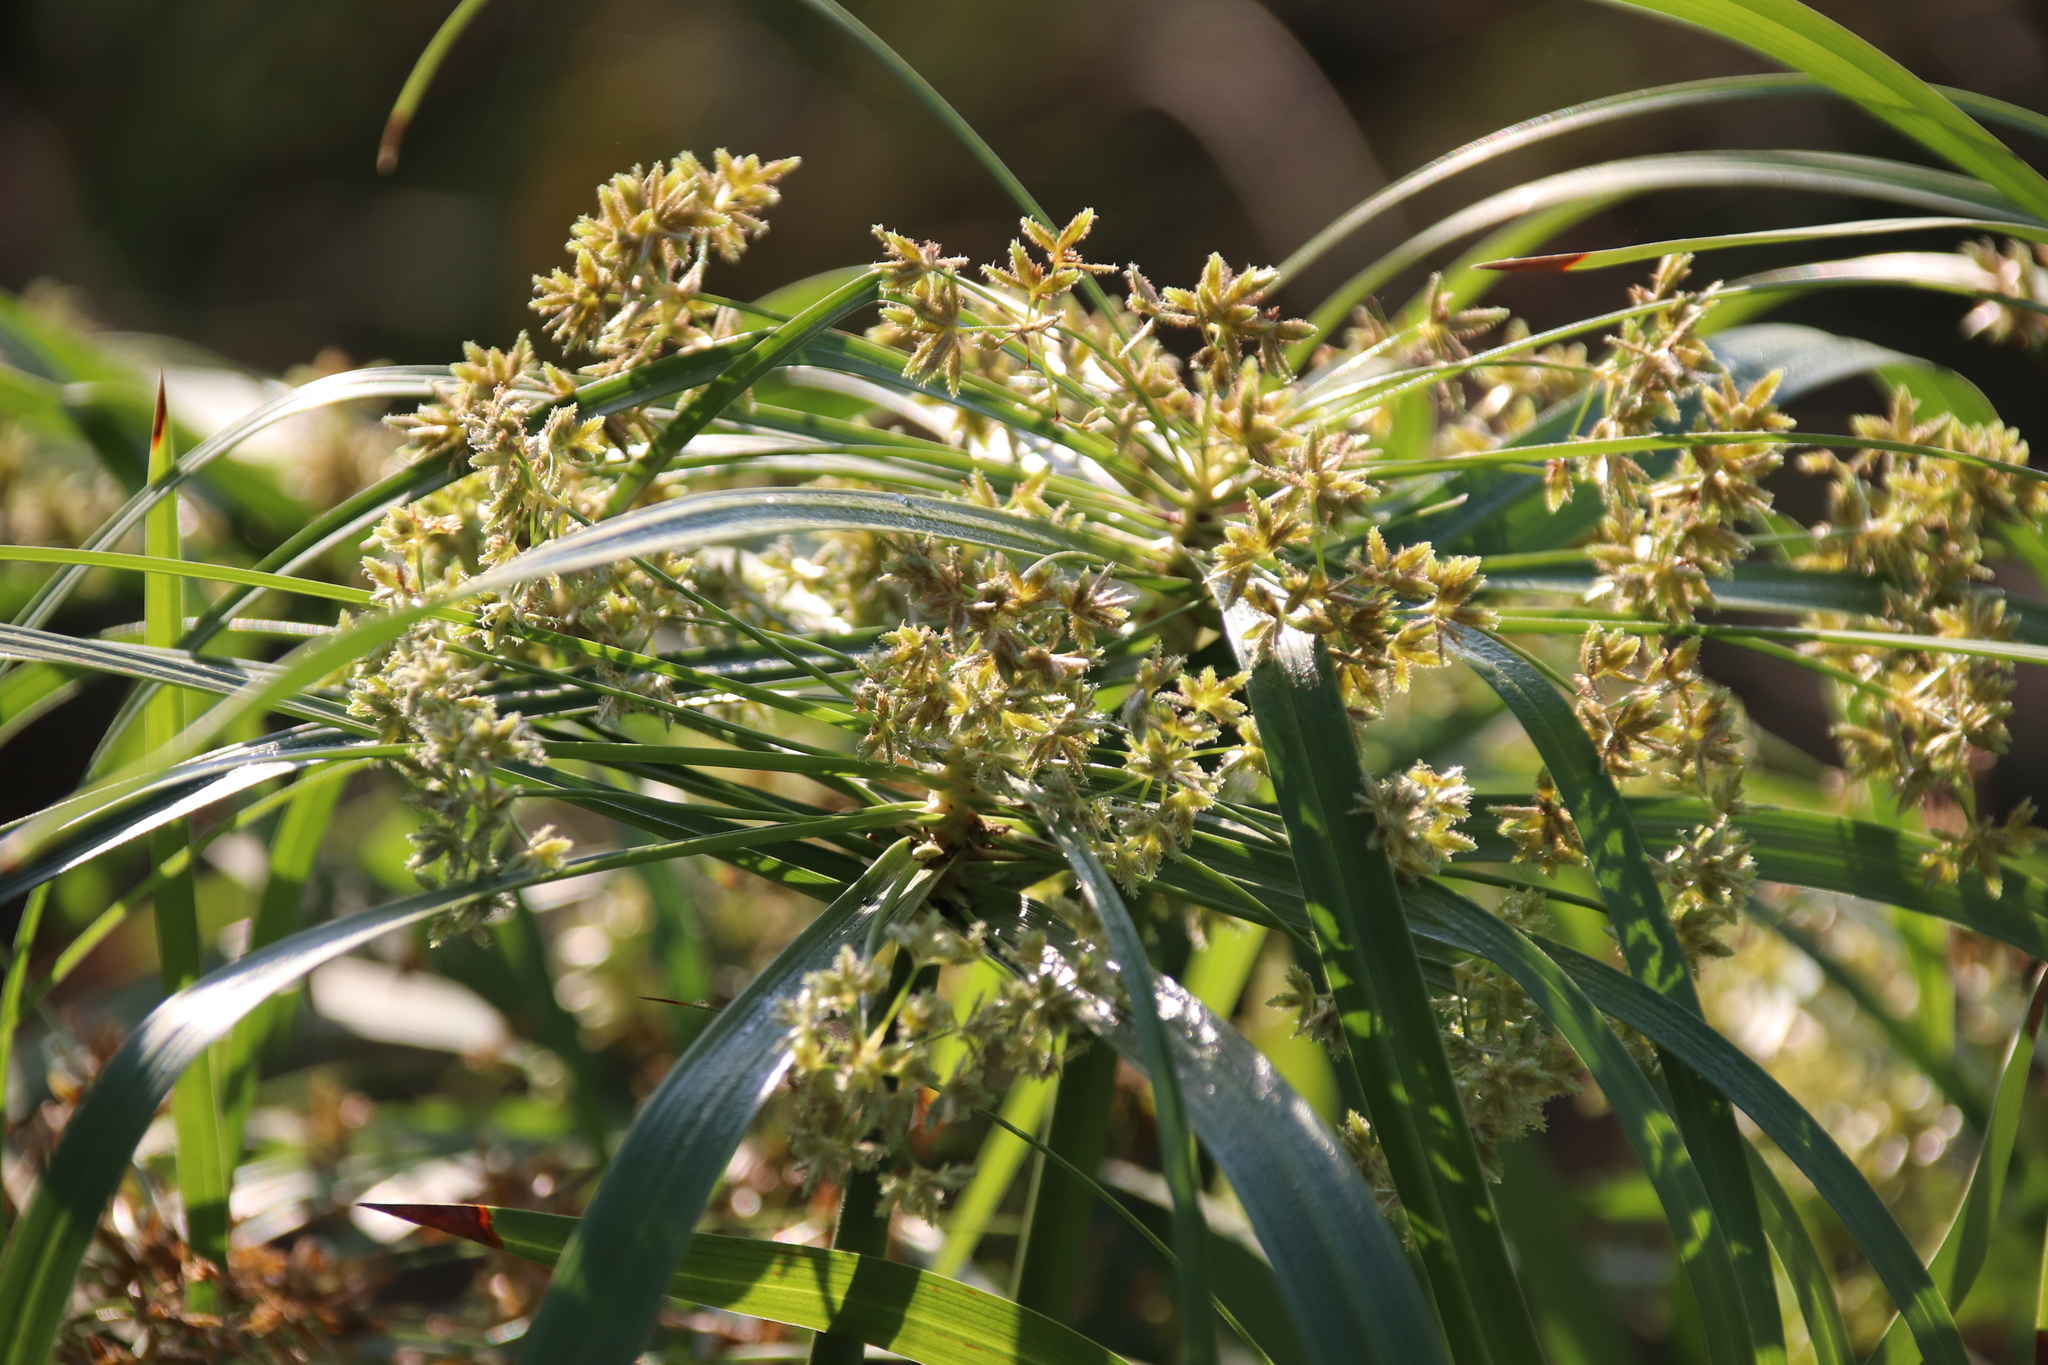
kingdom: Plantae
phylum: Tracheophyta
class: Liliopsida
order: Poales
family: Cyperaceae
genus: Cyperus
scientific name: Cyperus alternifolius
